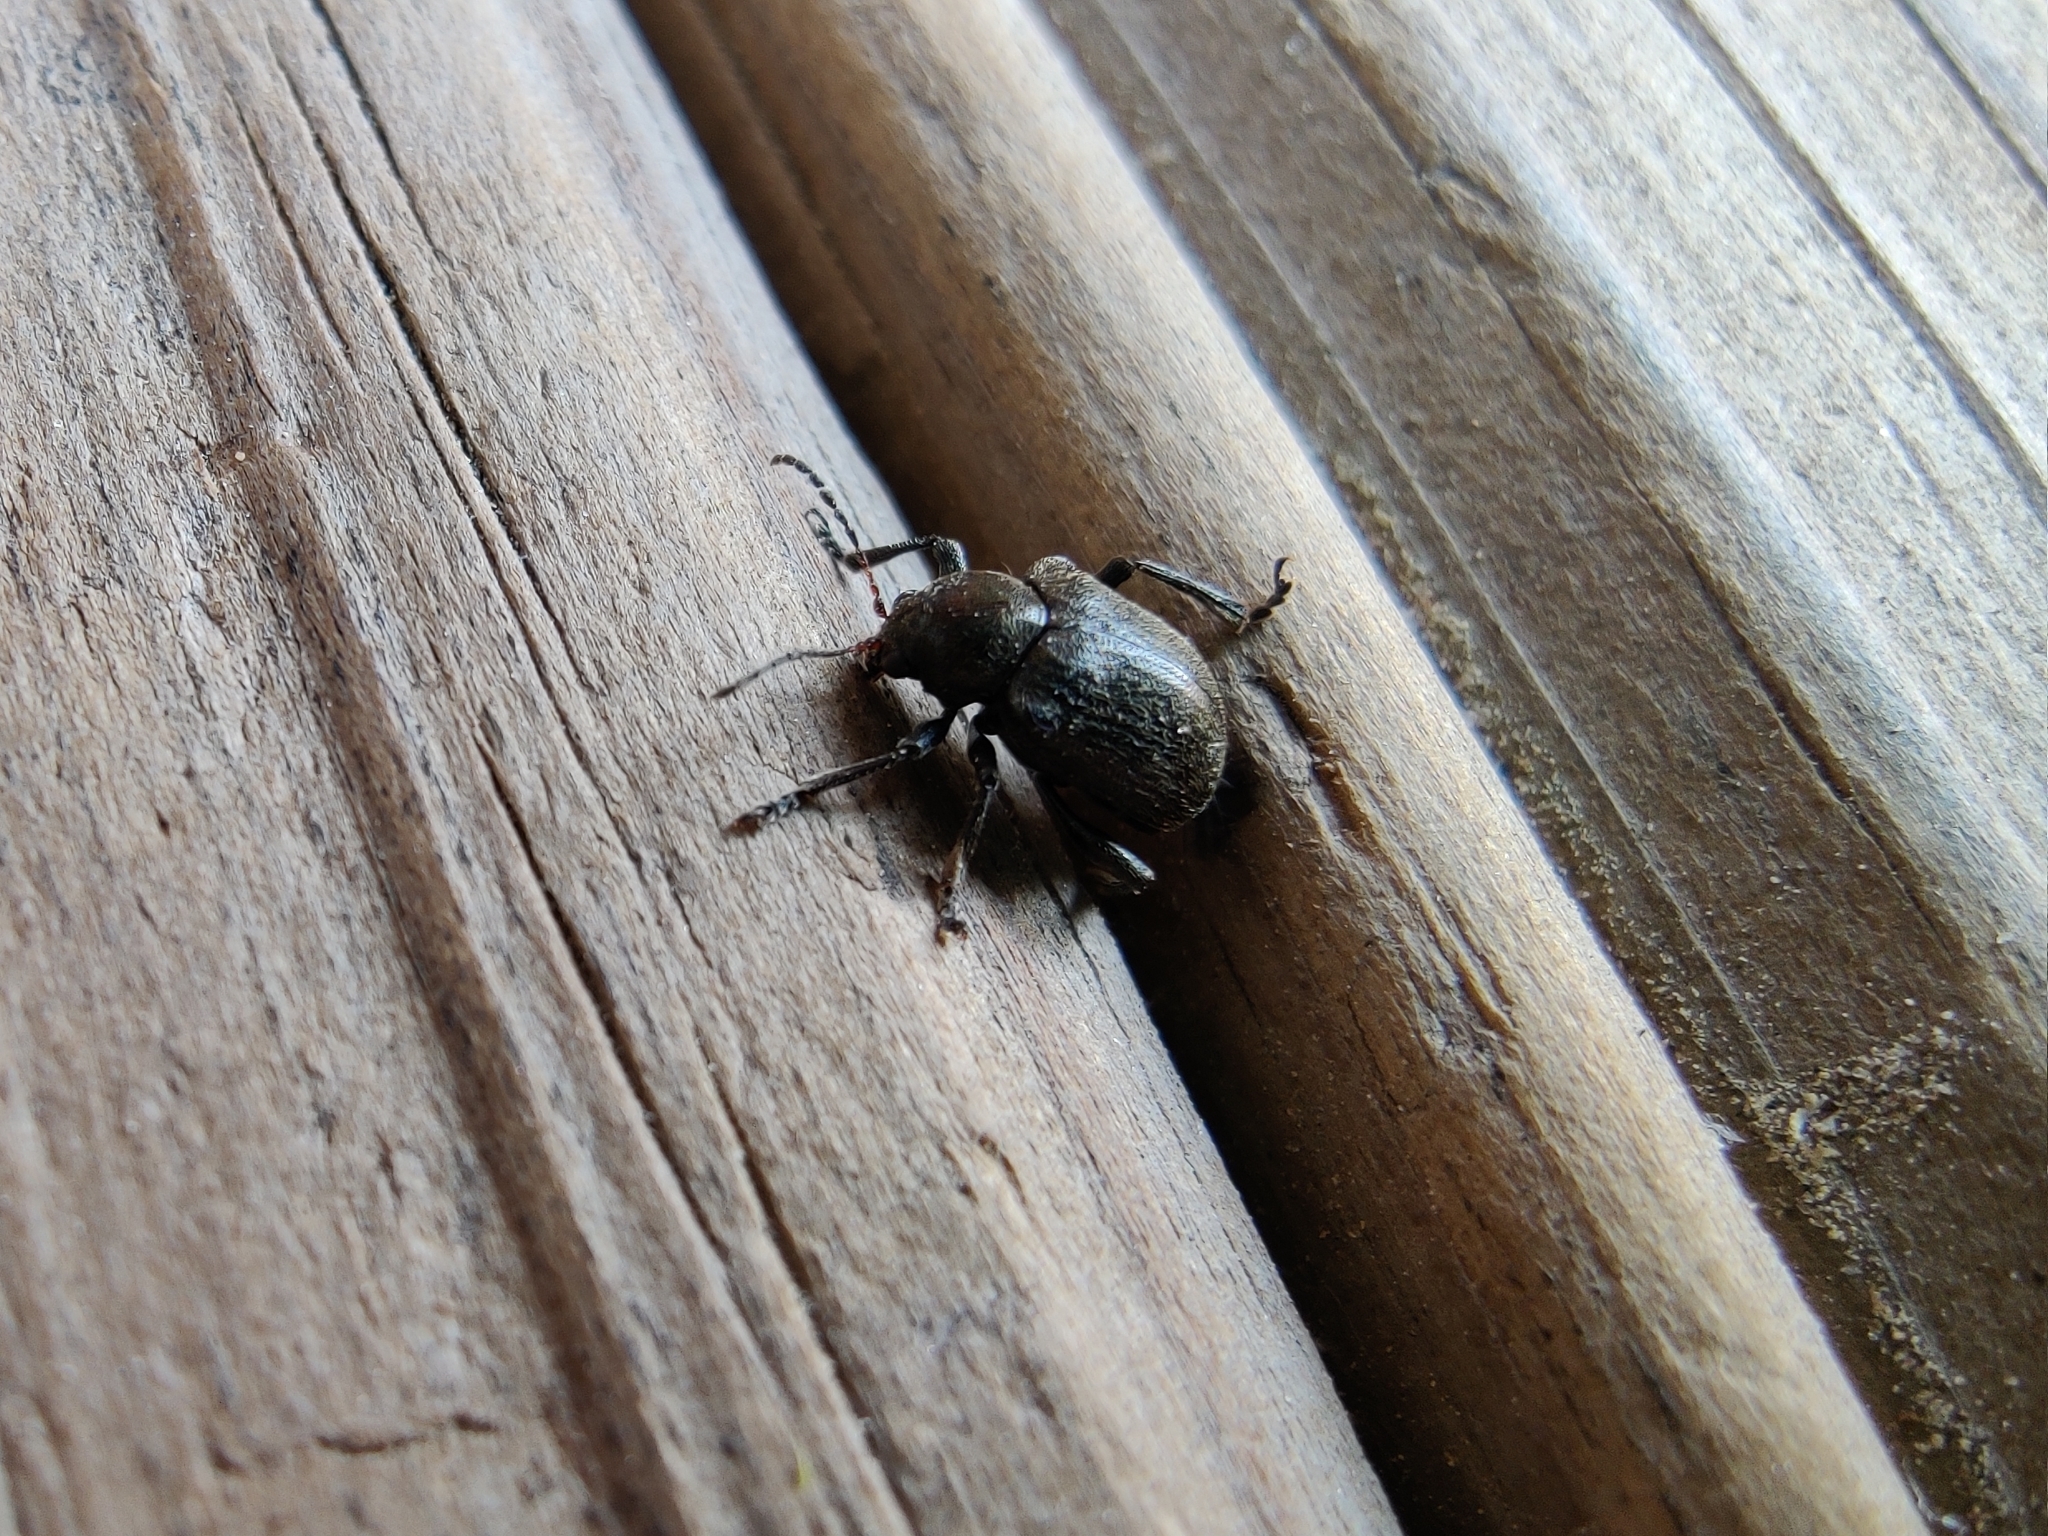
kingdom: Animalia
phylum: Arthropoda
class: Insecta
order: Coleoptera
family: Chrysomelidae
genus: Bromius
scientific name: Bromius obscurus
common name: Western grape rootworm
